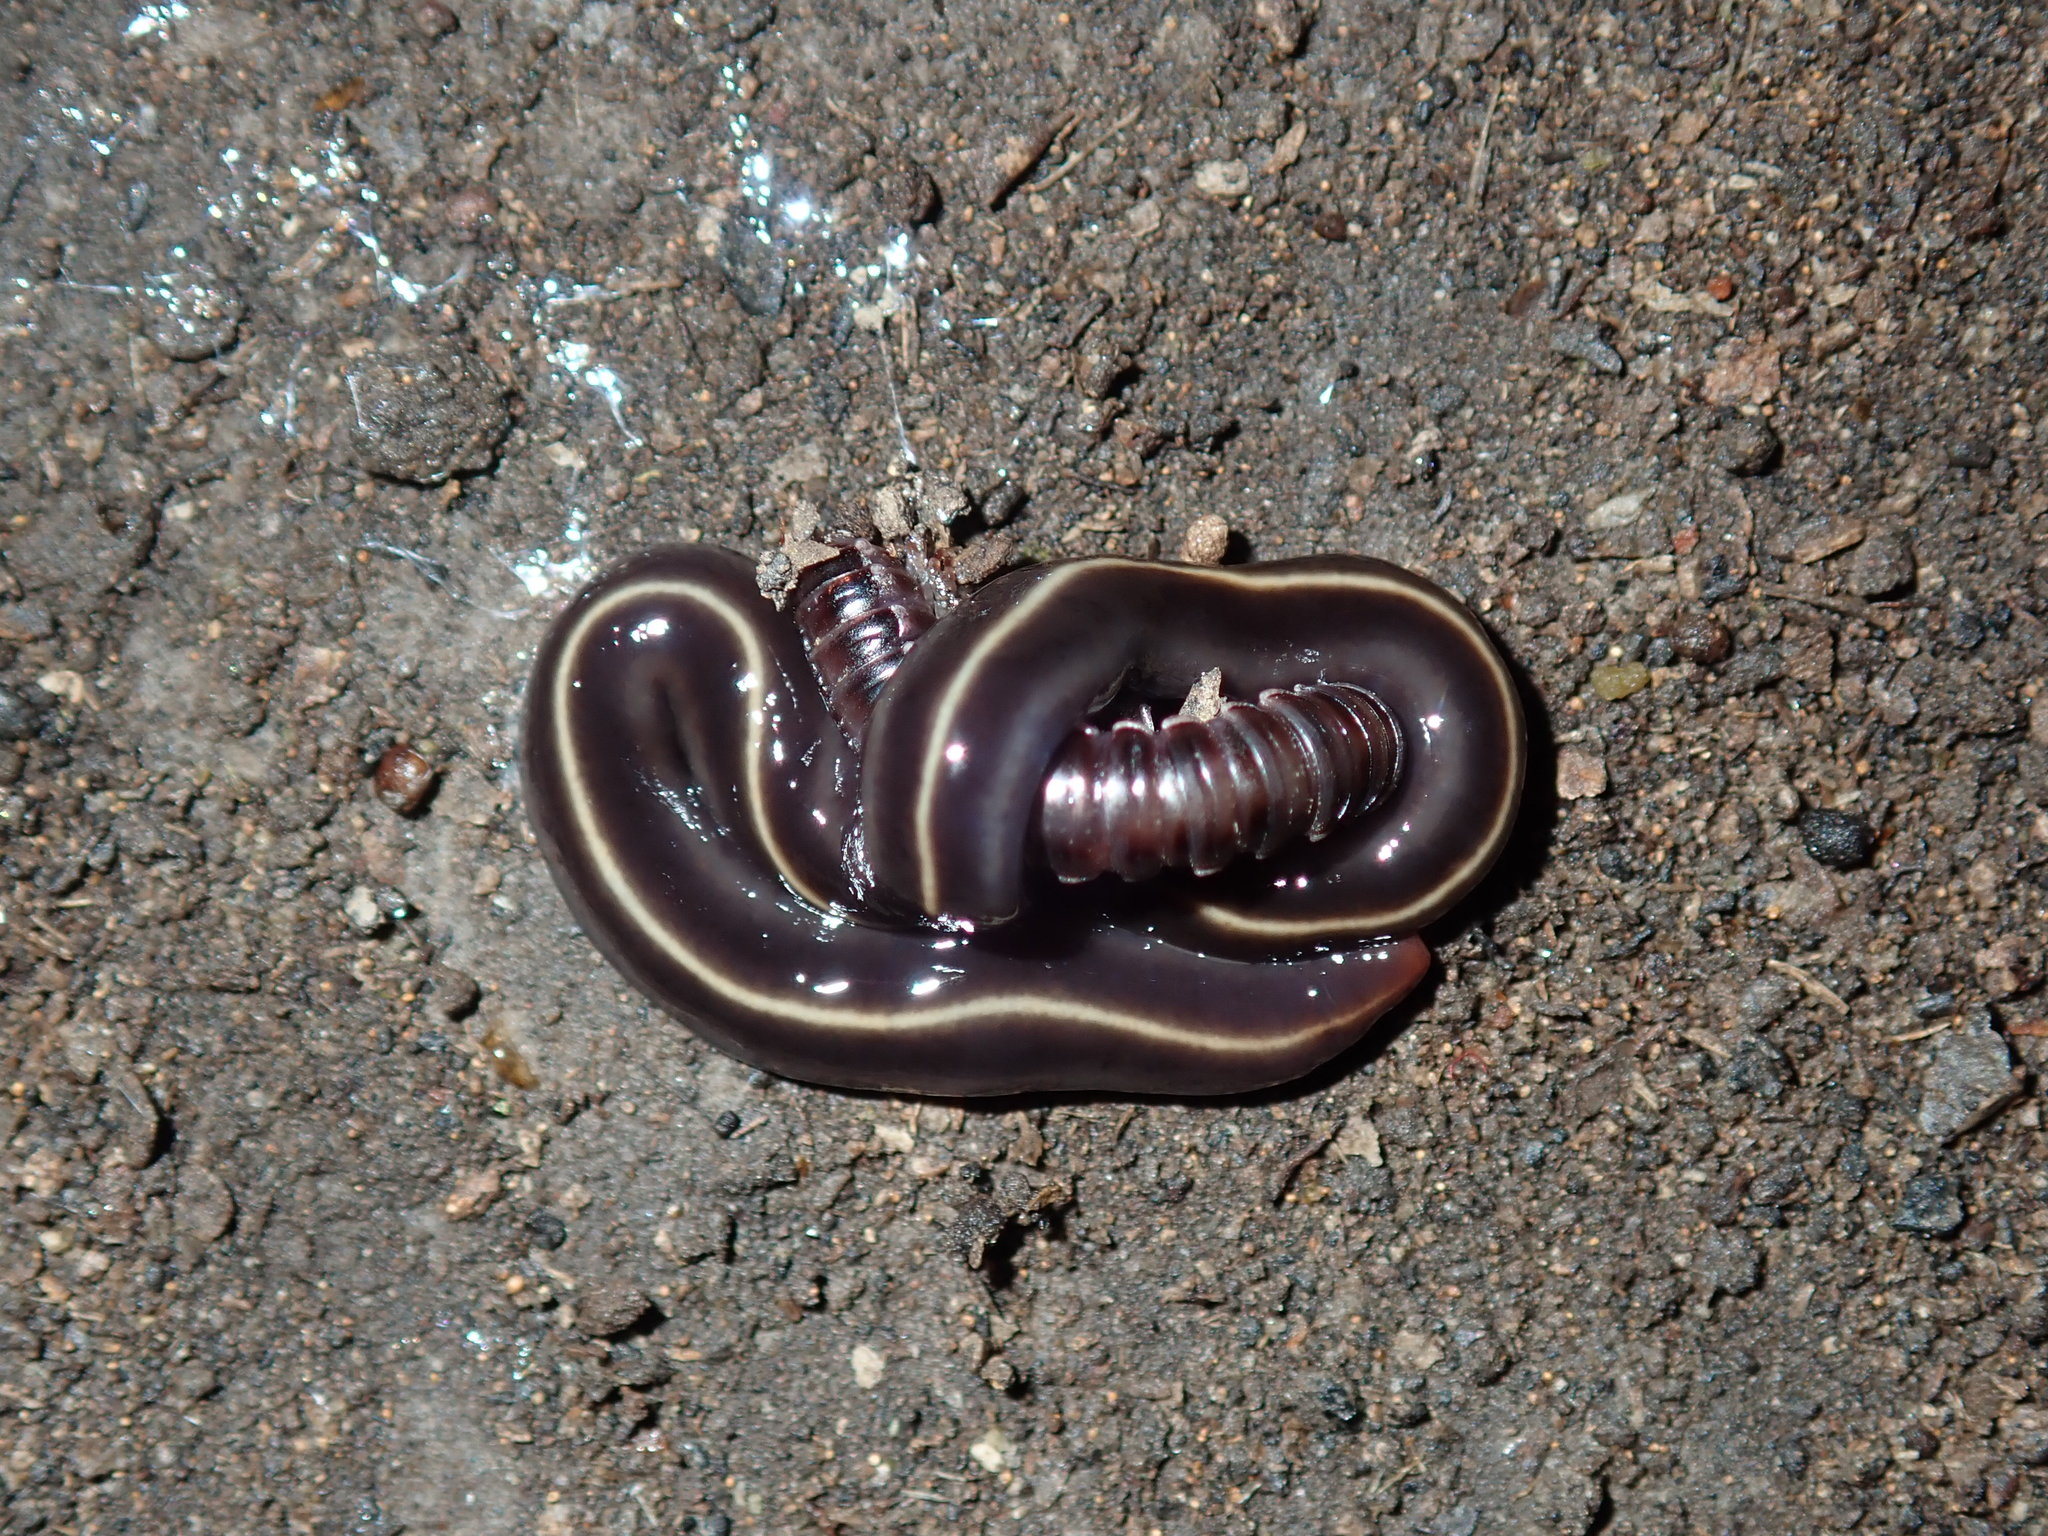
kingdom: Animalia
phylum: Platyhelminthes
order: Tricladida
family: Geoplanidae
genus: Caenoplana
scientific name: Caenoplana coerulea
